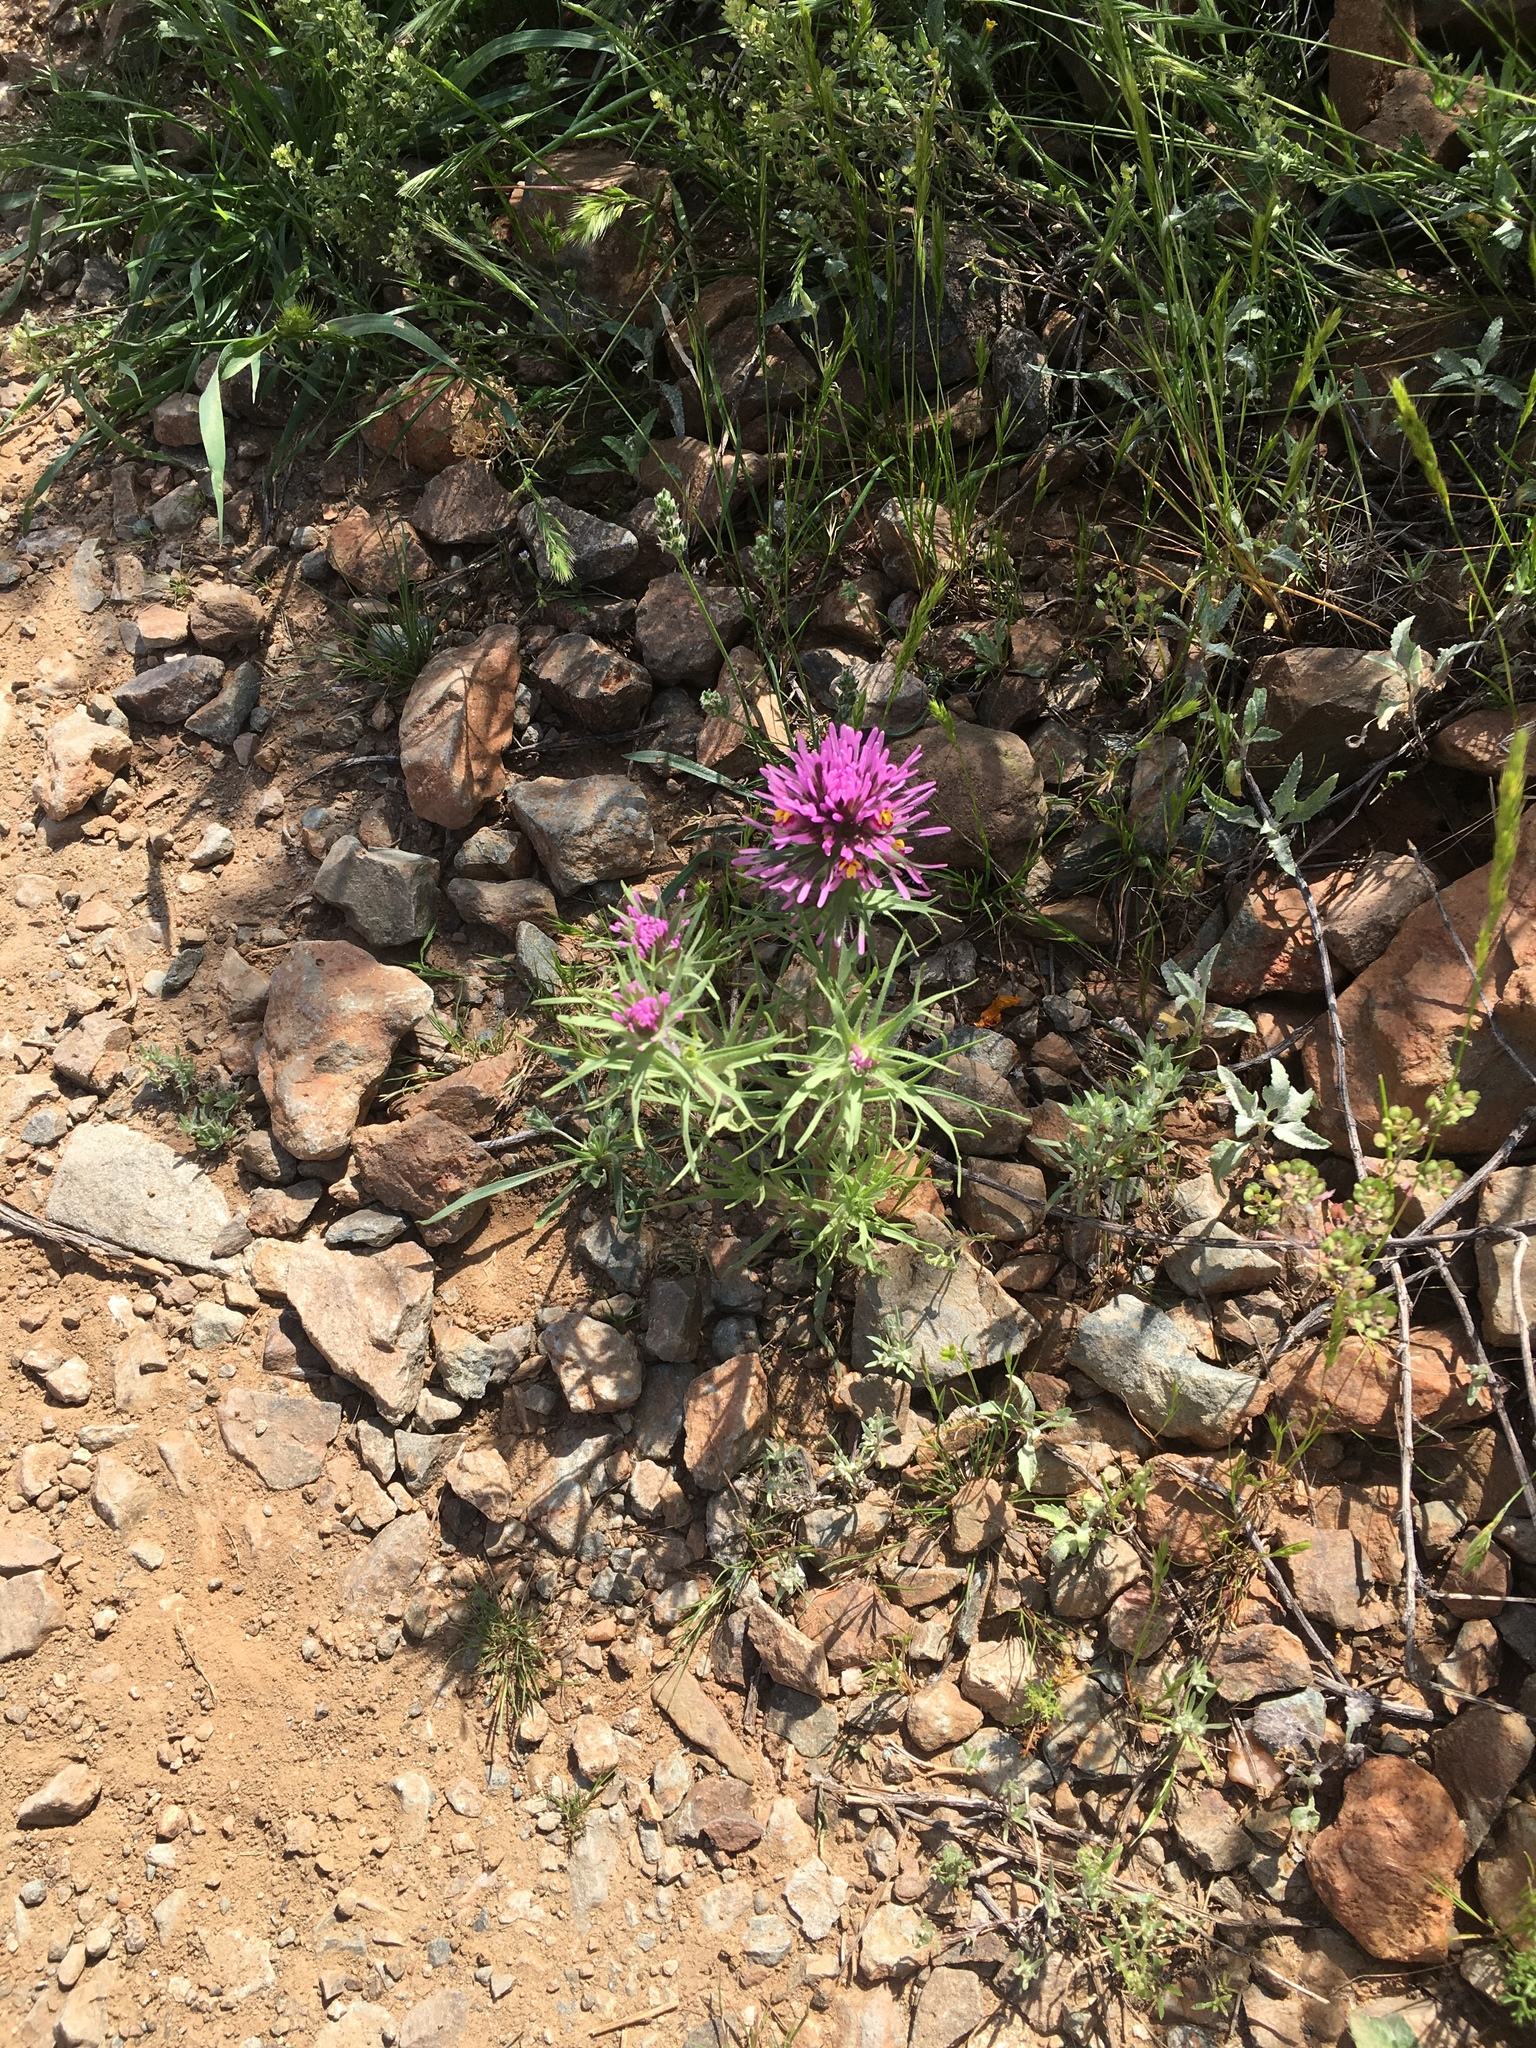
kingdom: Plantae
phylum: Tracheophyta
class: Magnoliopsida
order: Lamiales
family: Orobanchaceae
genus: Castilleja
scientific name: Castilleja exserta
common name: Purple owl-clover
